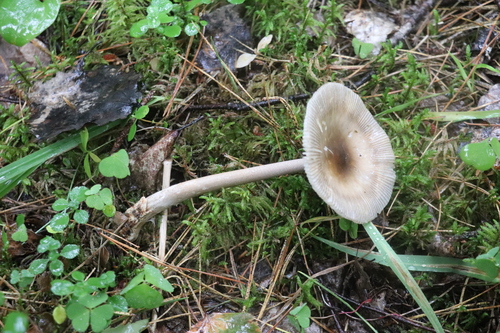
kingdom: Fungi
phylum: Basidiomycota
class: Agaricomycetes
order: Agaricales
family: Amanitaceae
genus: Amanita
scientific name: Amanita battarrae
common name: Banded amanita
